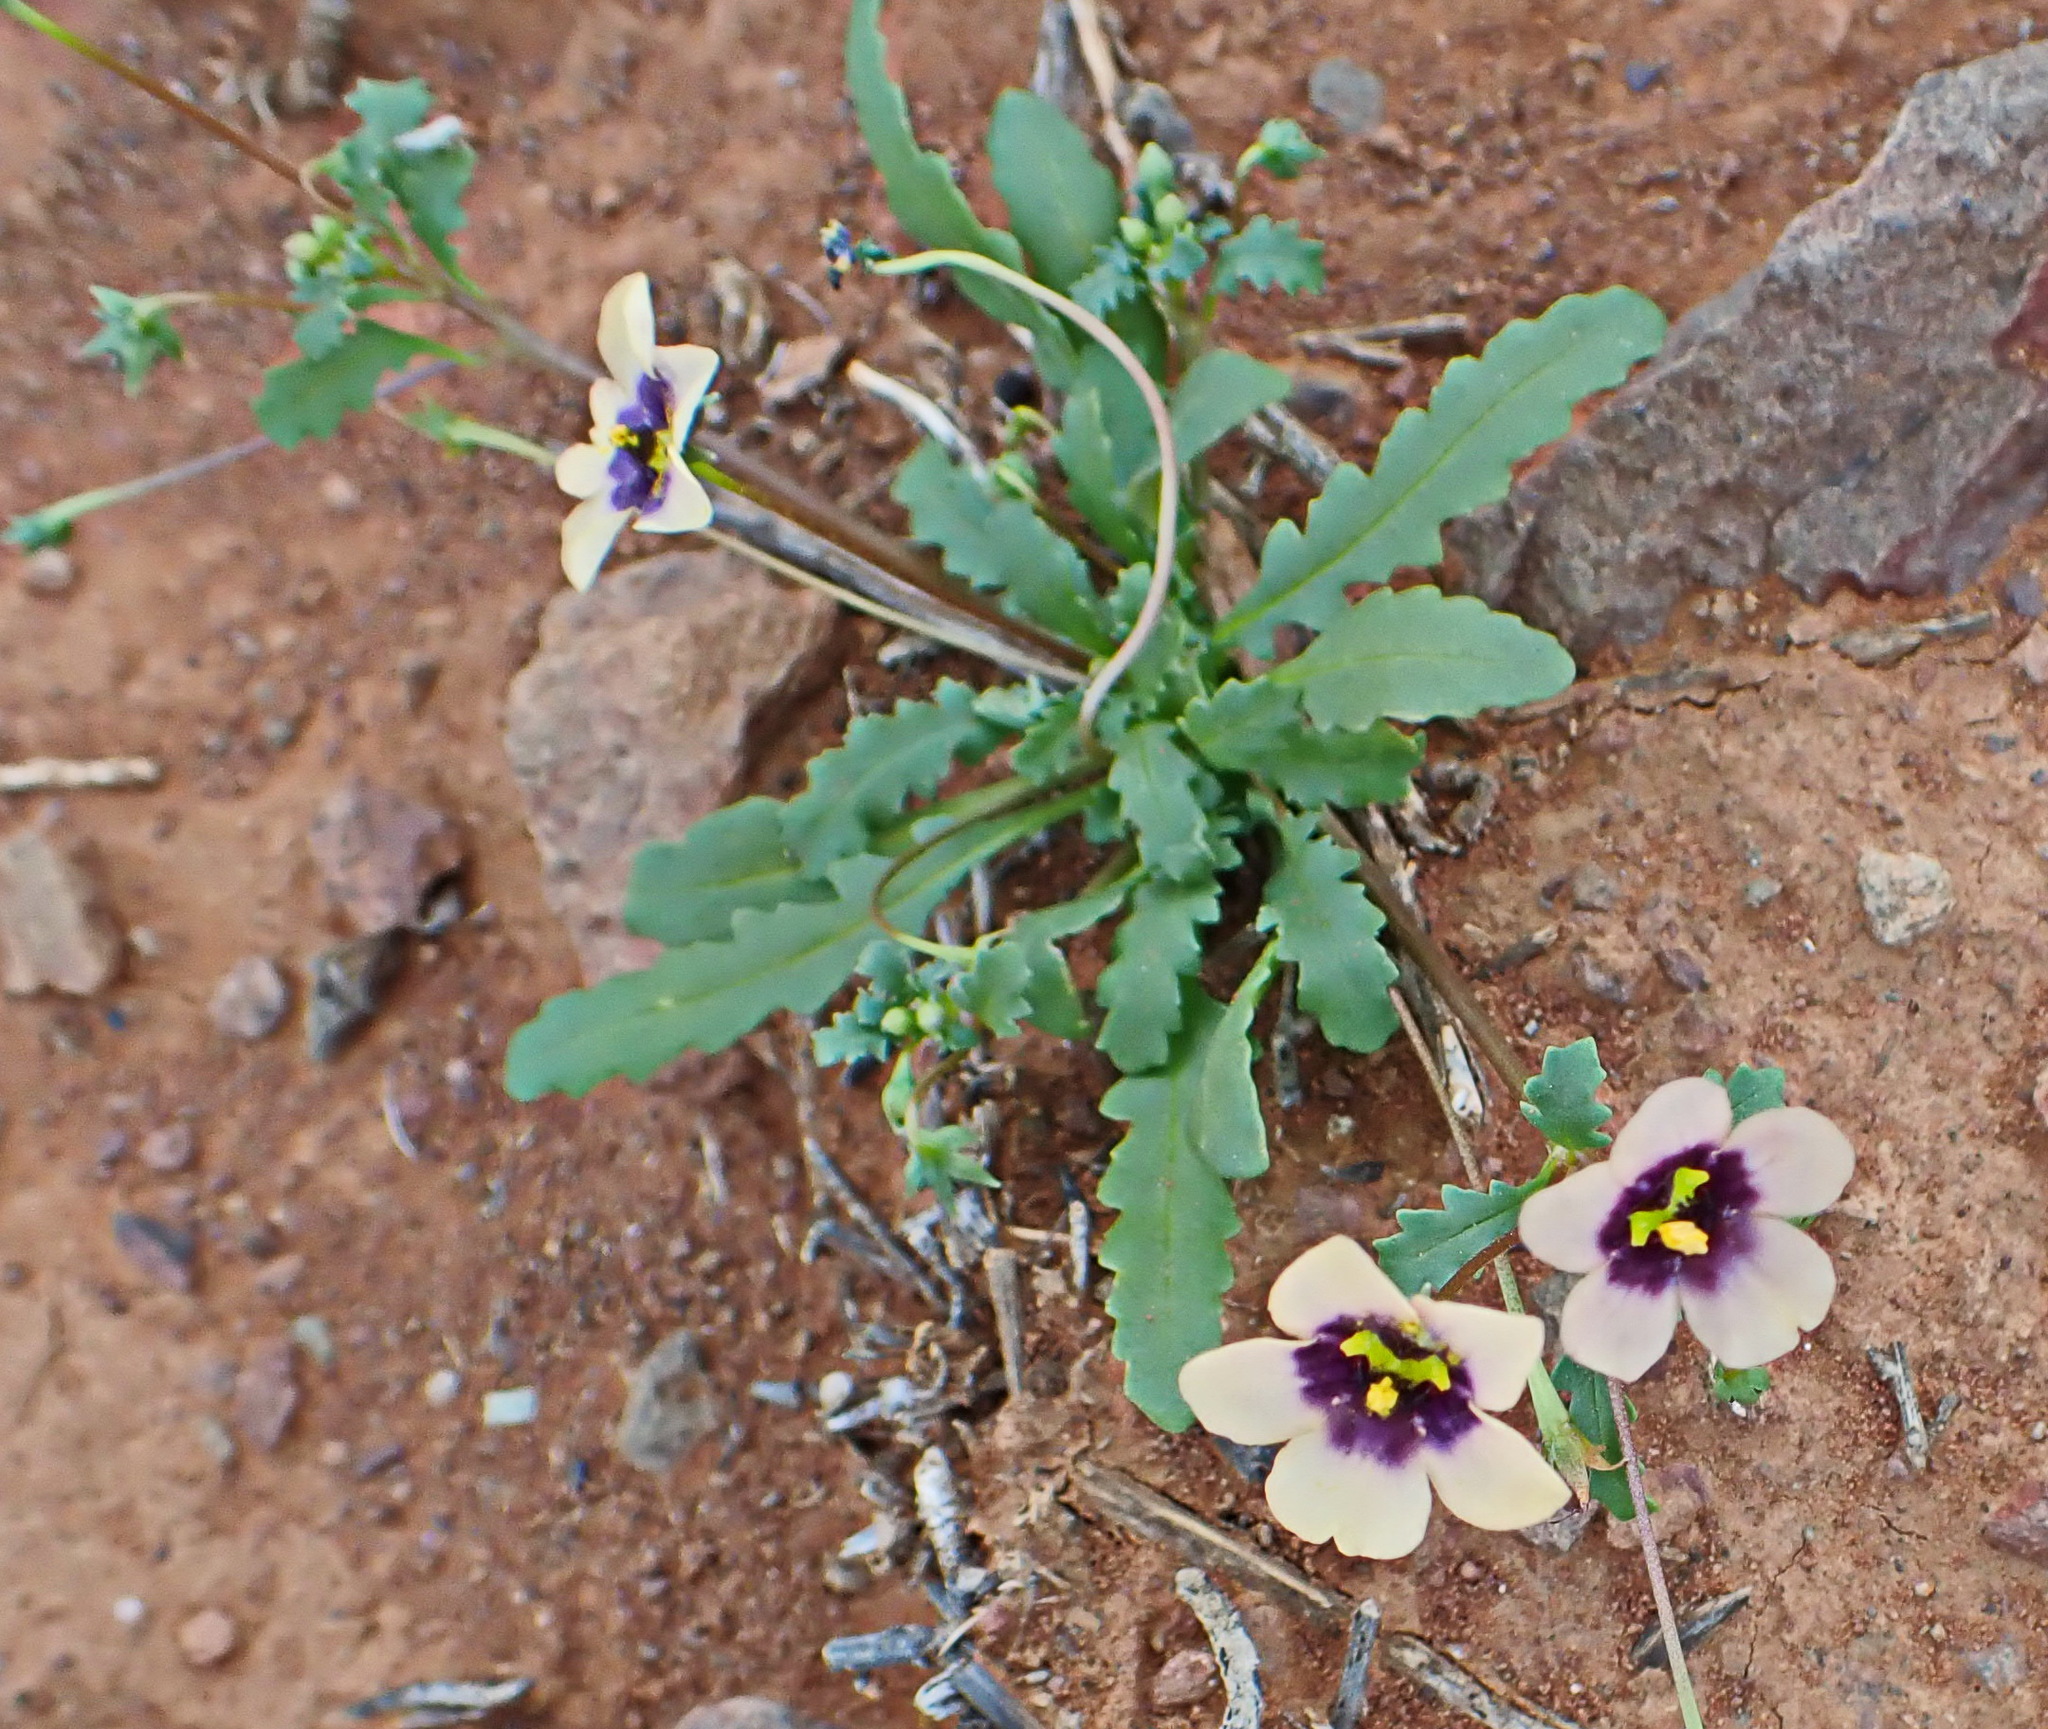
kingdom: Plantae
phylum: Tracheophyta
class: Magnoliopsida
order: Lamiales
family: Scrophulariaceae
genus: Diascia
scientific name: Diascia decipiens
